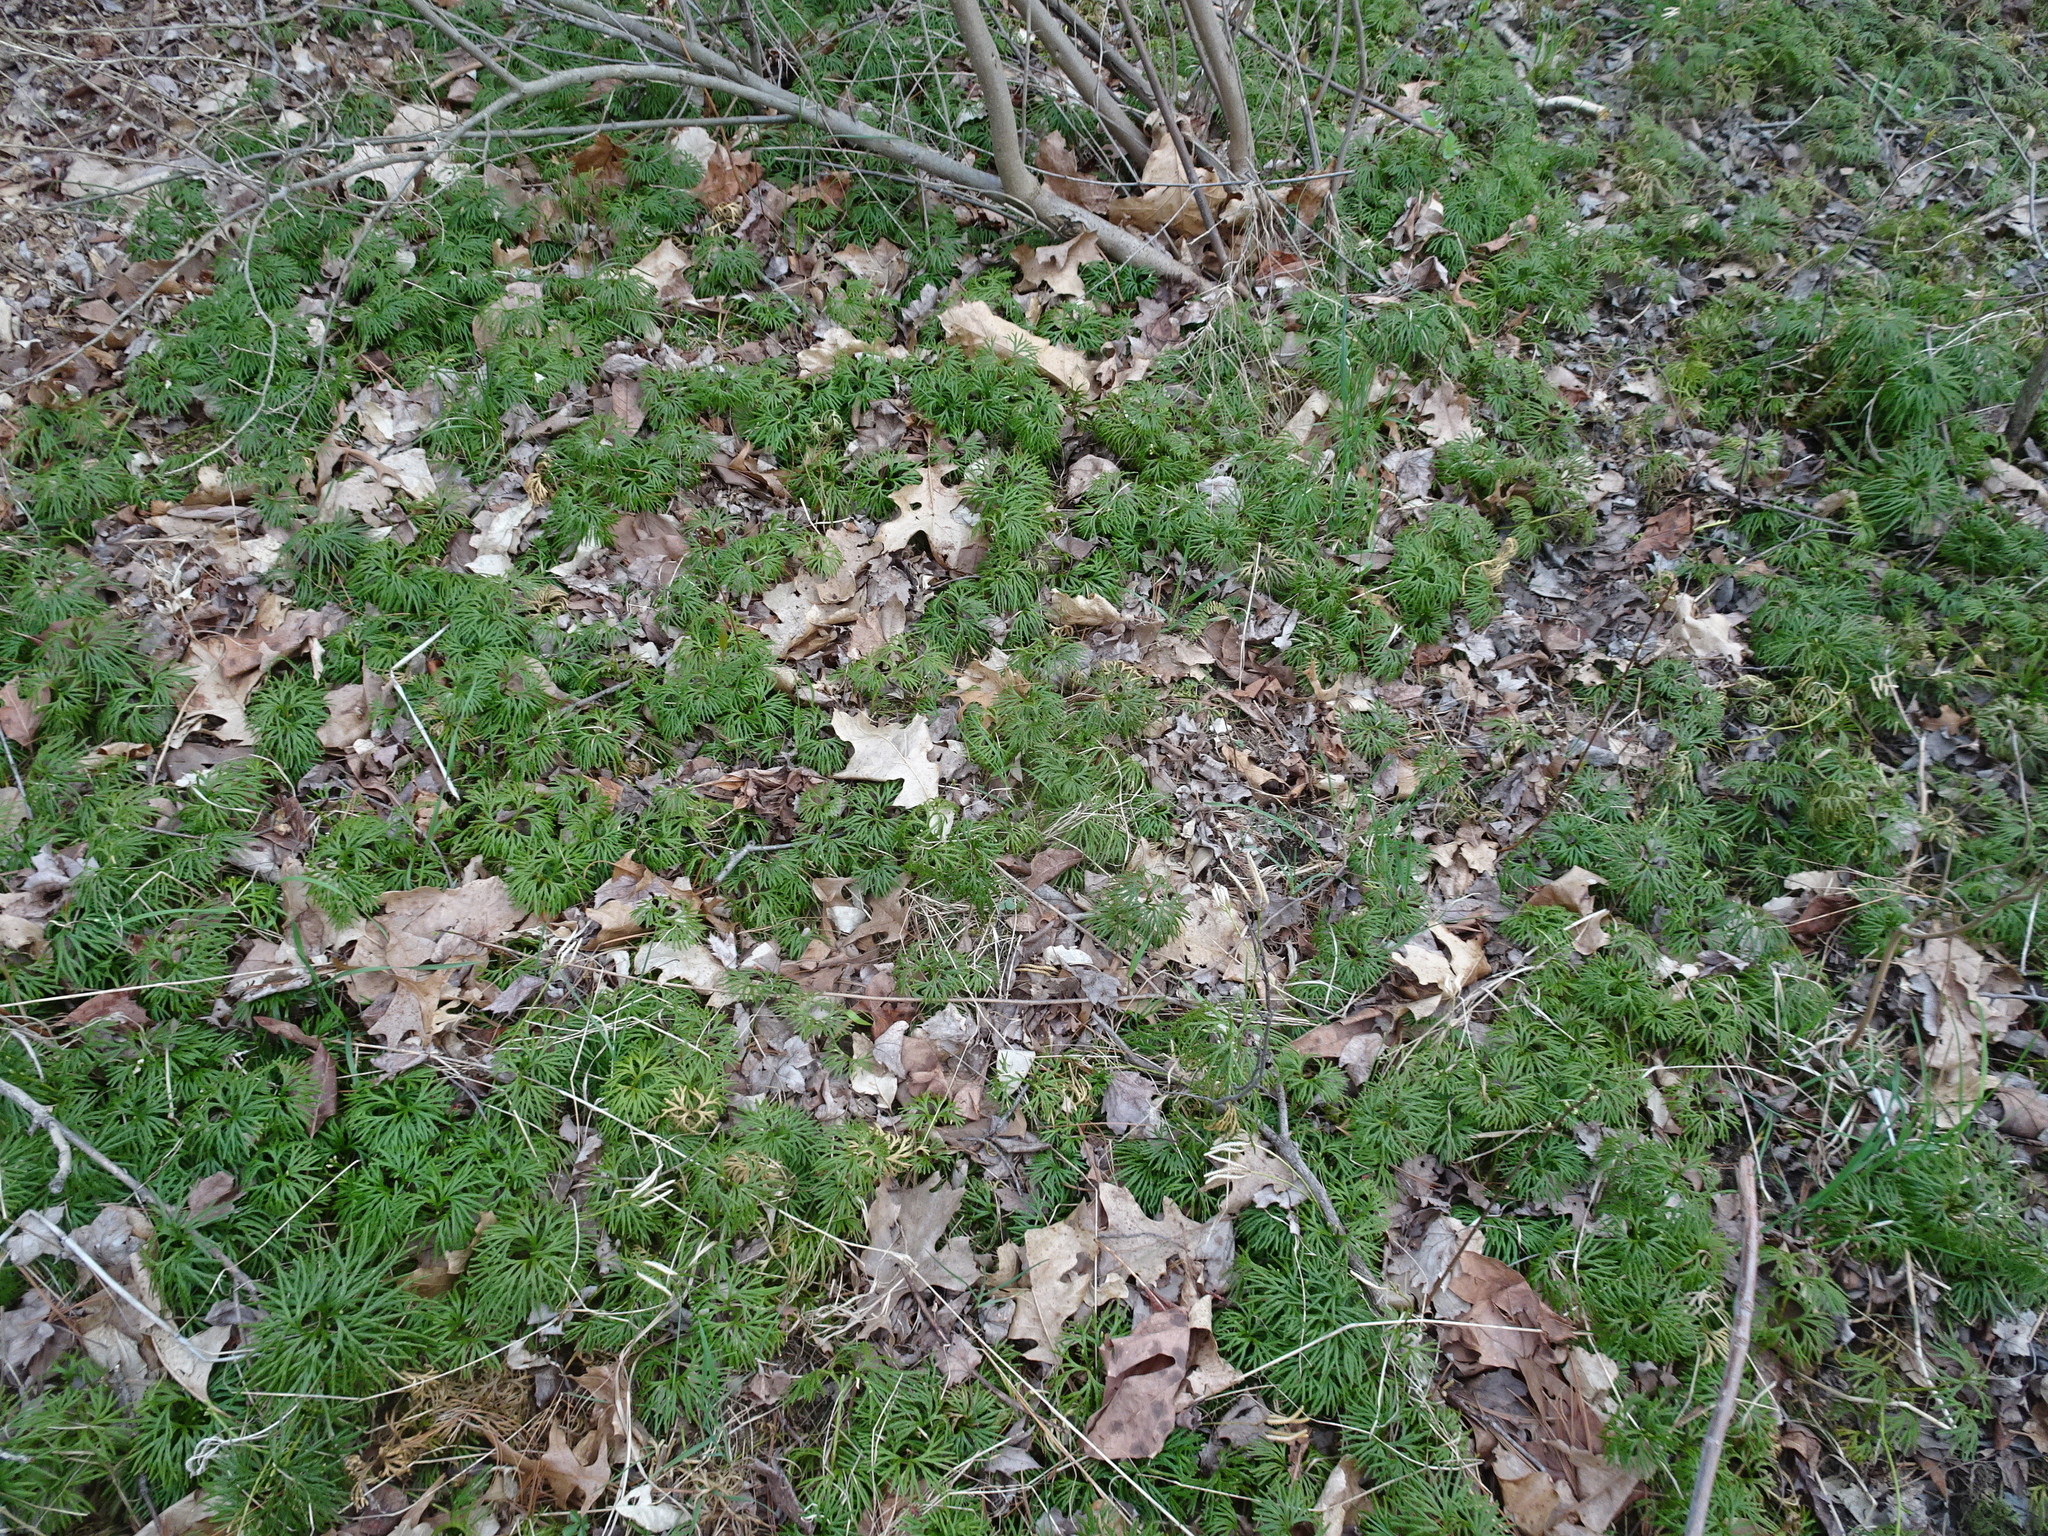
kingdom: Plantae
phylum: Tracheophyta
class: Lycopodiopsida
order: Lycopodiales
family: Lycopodiaceae
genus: Diphasiastrum
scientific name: Diphasiastrum digitatum
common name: Southern running-pine
